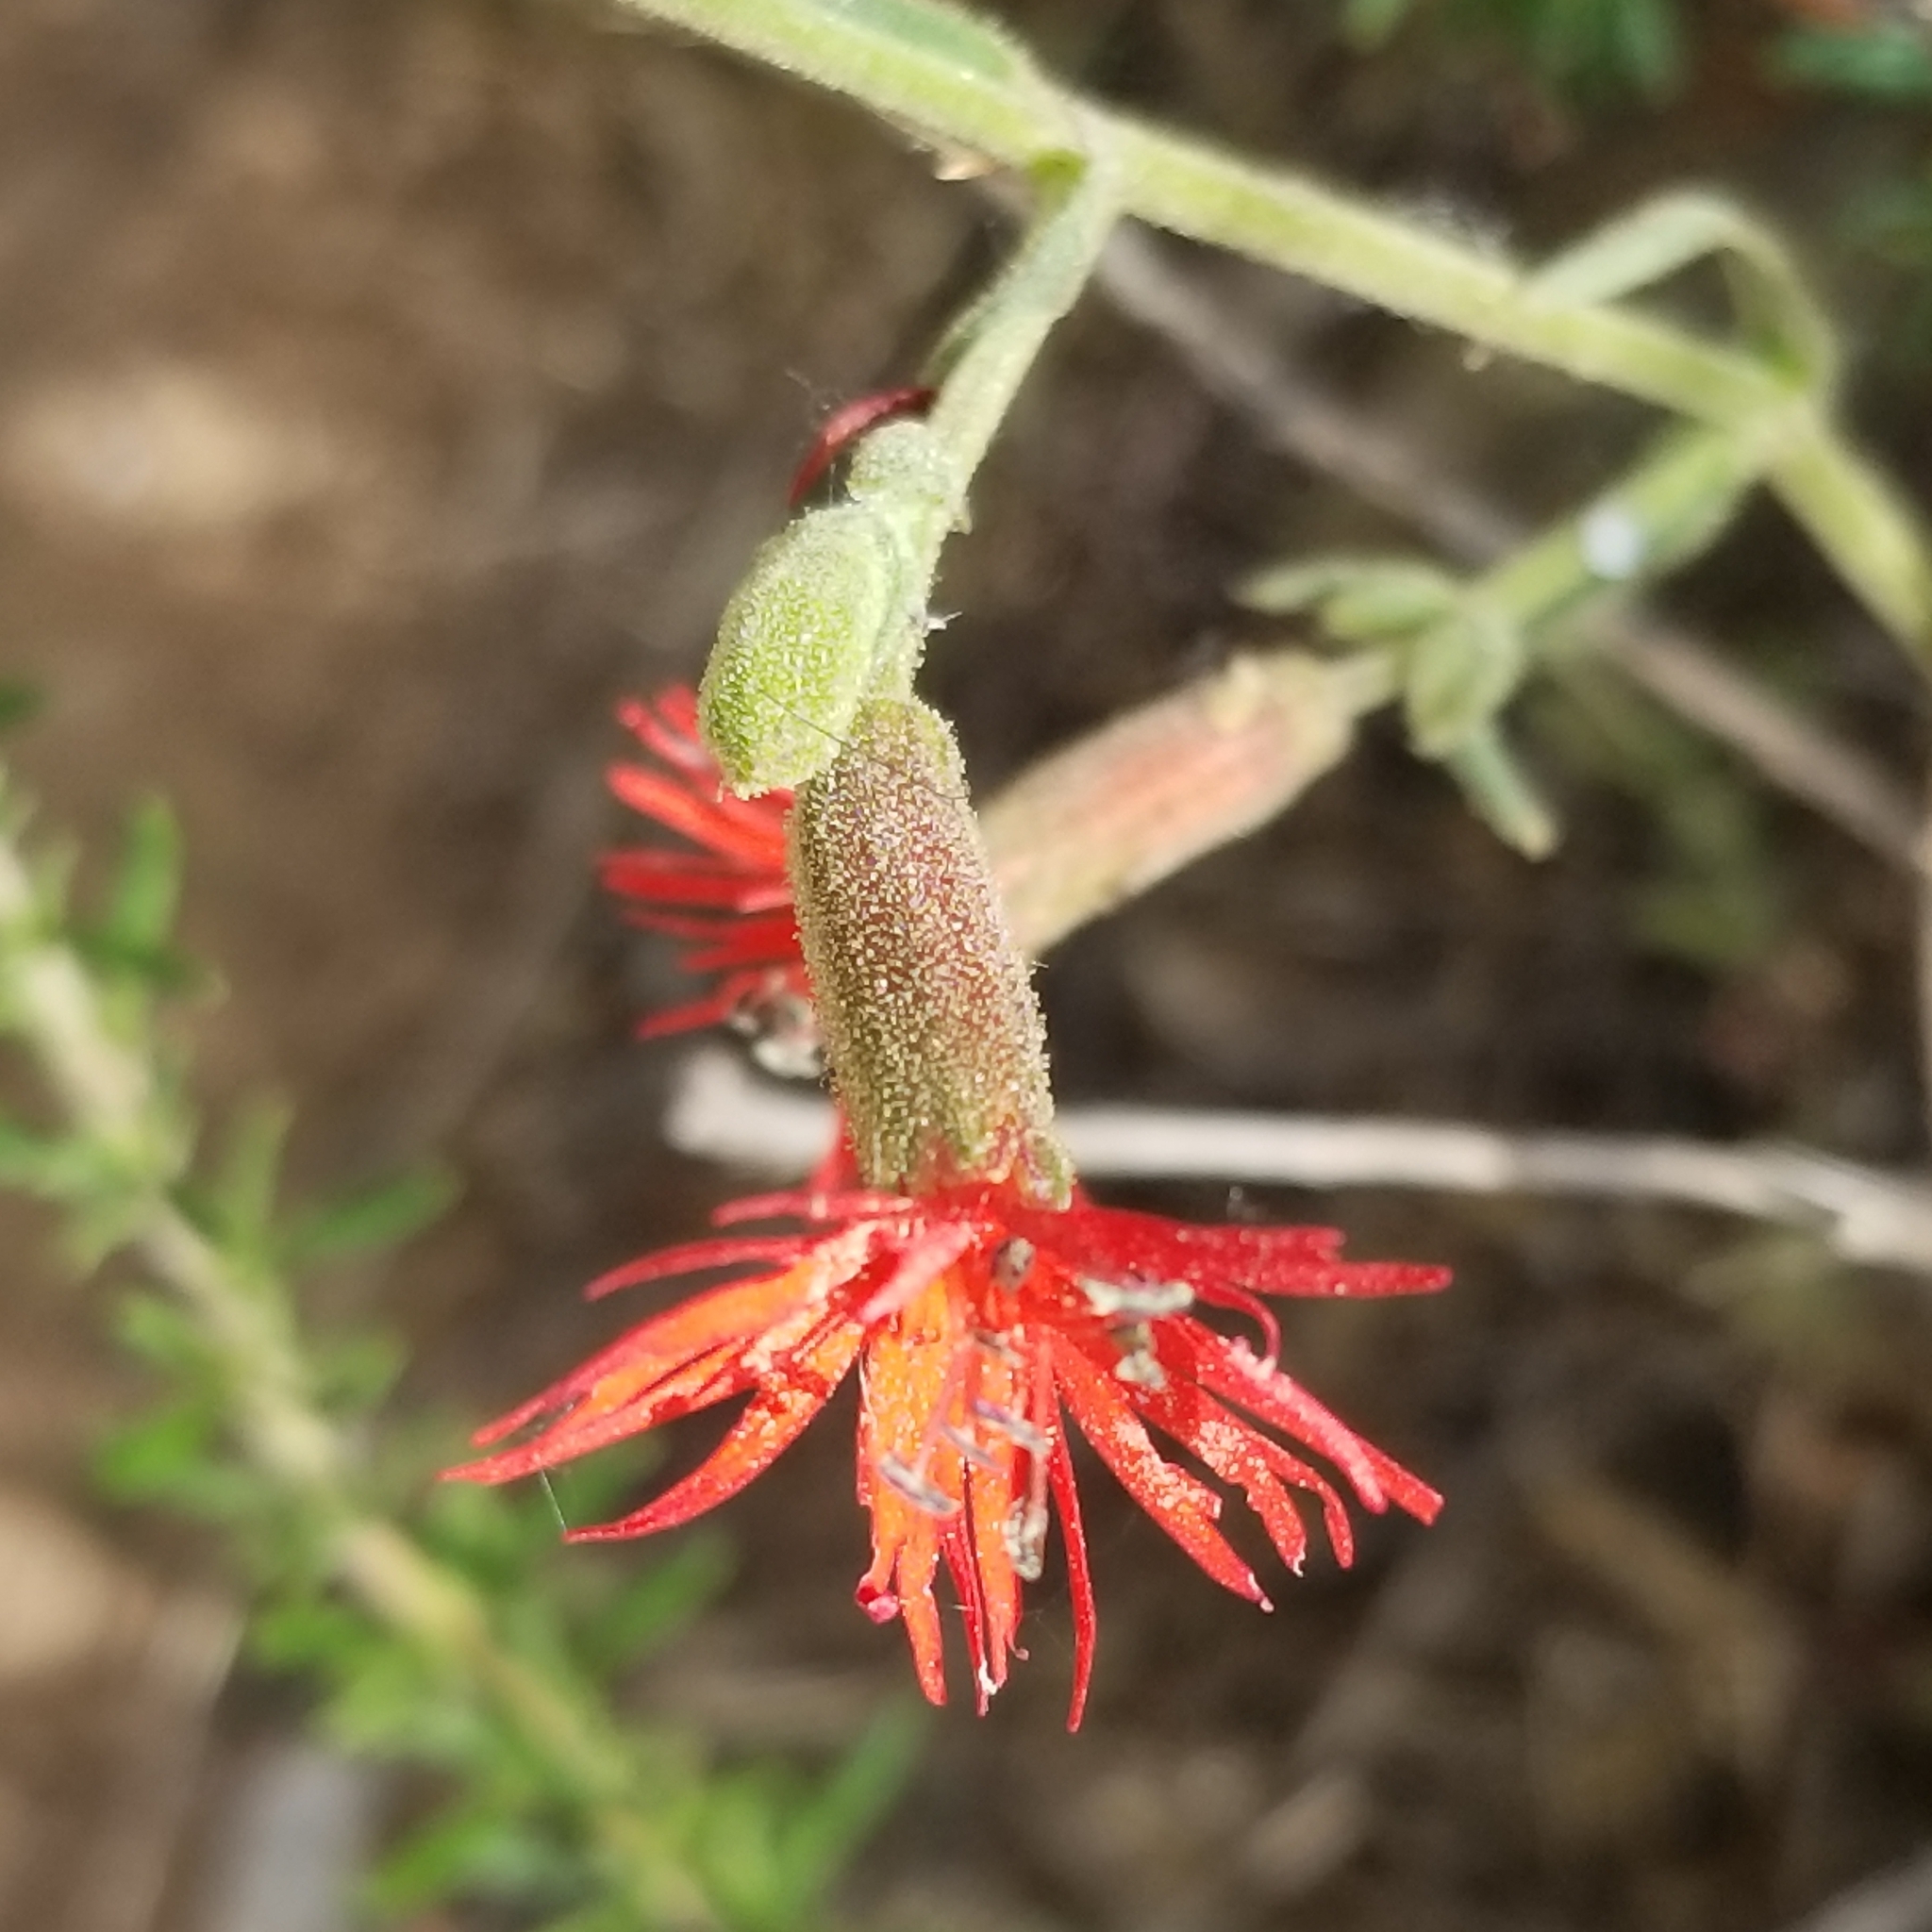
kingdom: Plantae
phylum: Tracheophyta
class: Magnoliopsida
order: Caryophyllales
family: Caryophyllaceae
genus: Silene
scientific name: Silene laciniata
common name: Indian-pink
